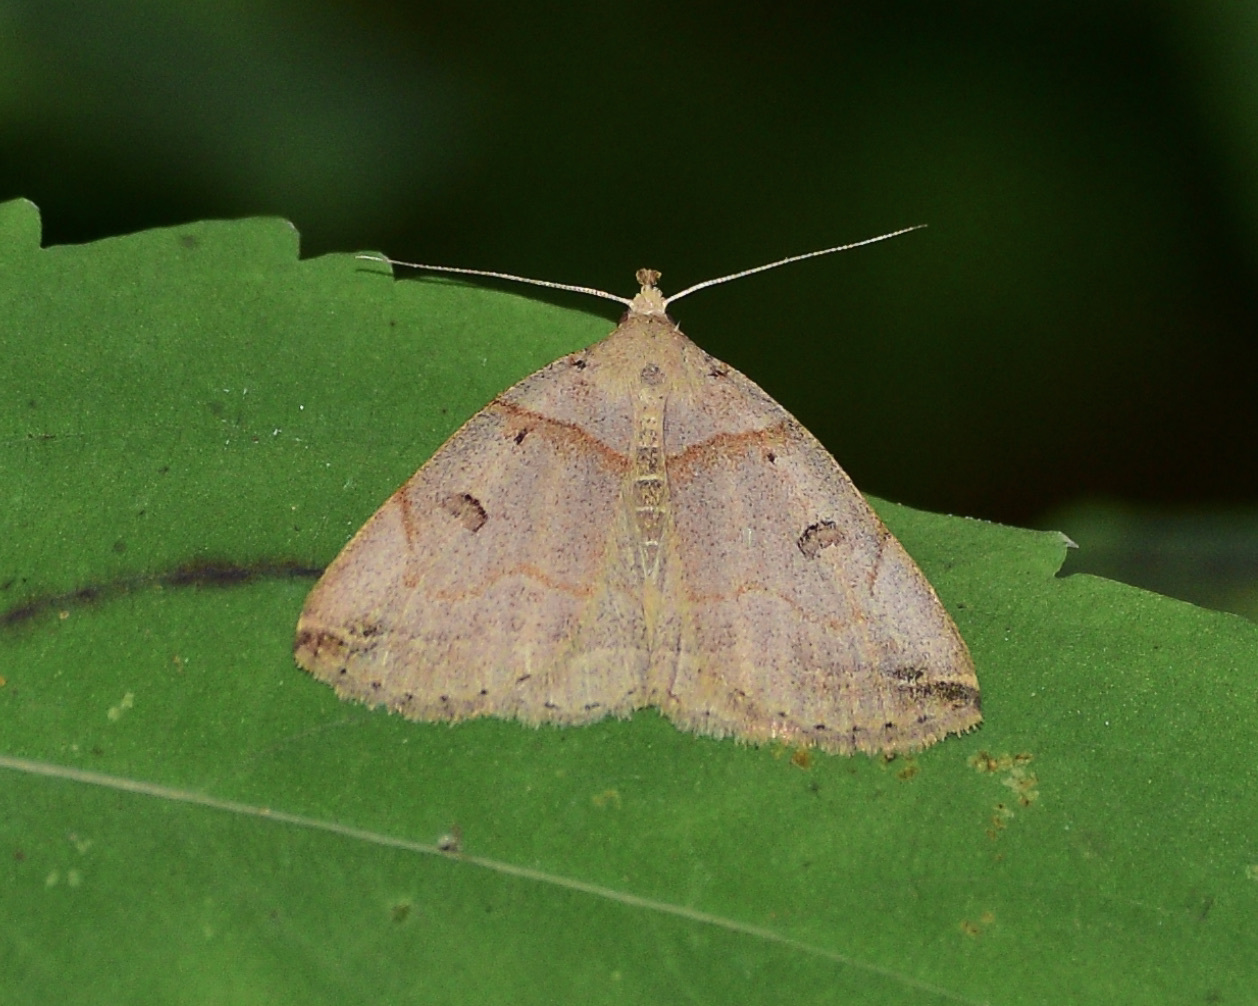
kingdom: Animalia
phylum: Arthropoda
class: Insecta
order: Lepidoptera
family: Erebidae
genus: Zanclognatha
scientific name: Zanclognatha laevigata
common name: Variable fan-foot
